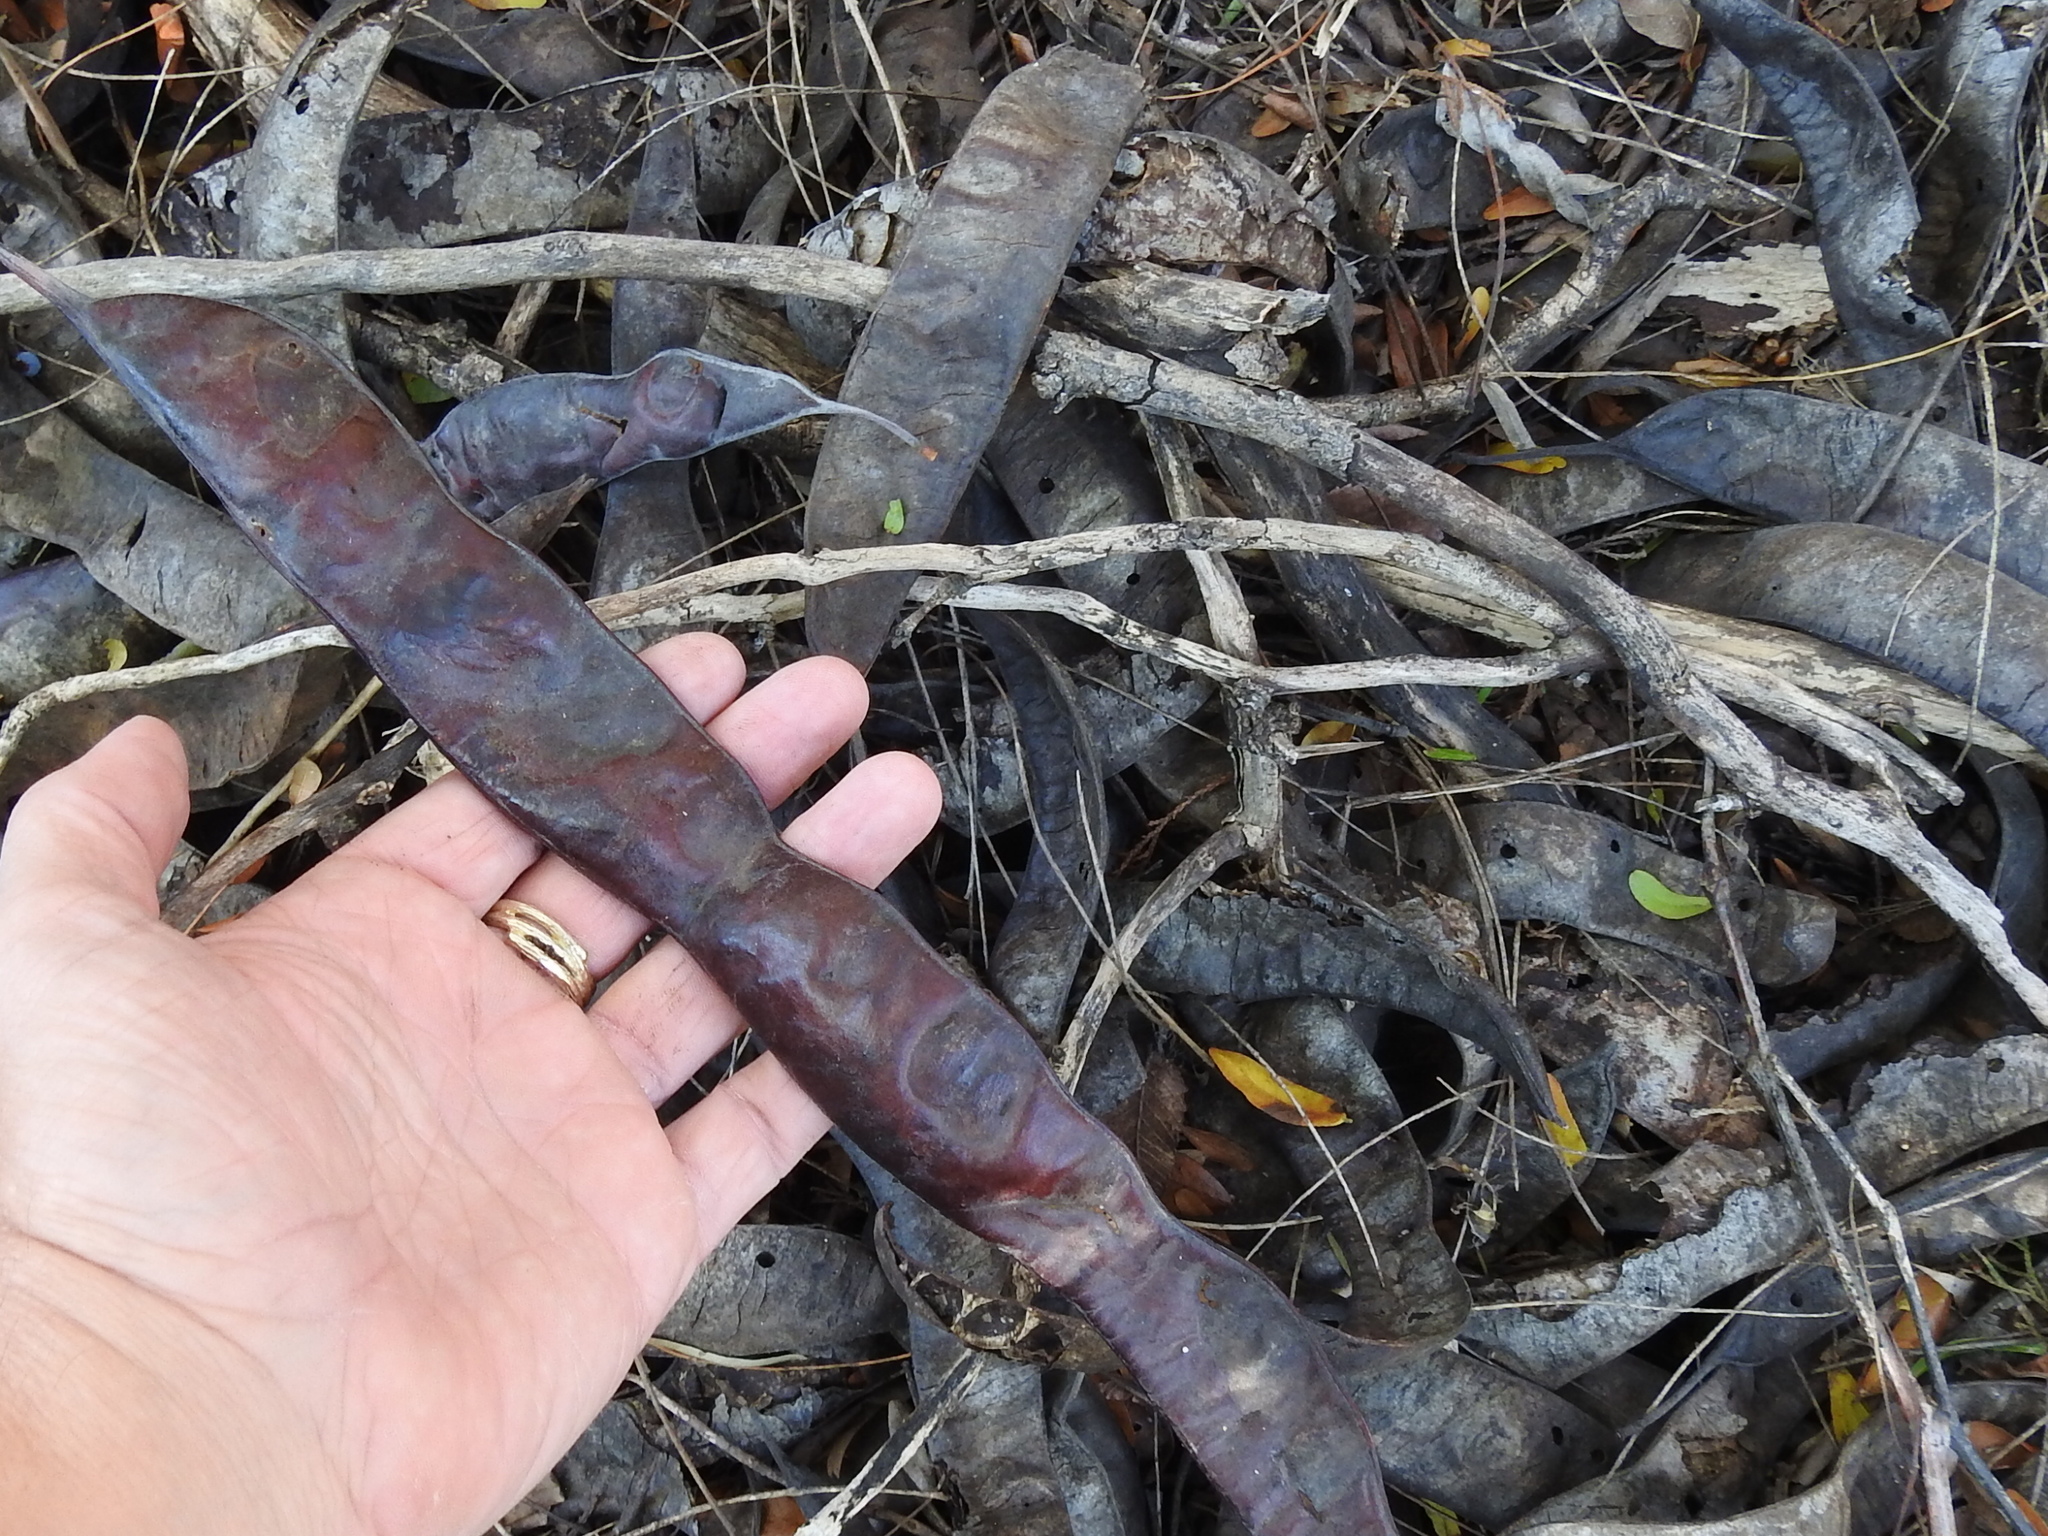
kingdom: Plantae
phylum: Tracheophyta
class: Magnoliopsida
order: Fabales
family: Fabaceae
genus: Gleditsia
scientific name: Gleditsia triacanthos
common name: Common honeylocust
